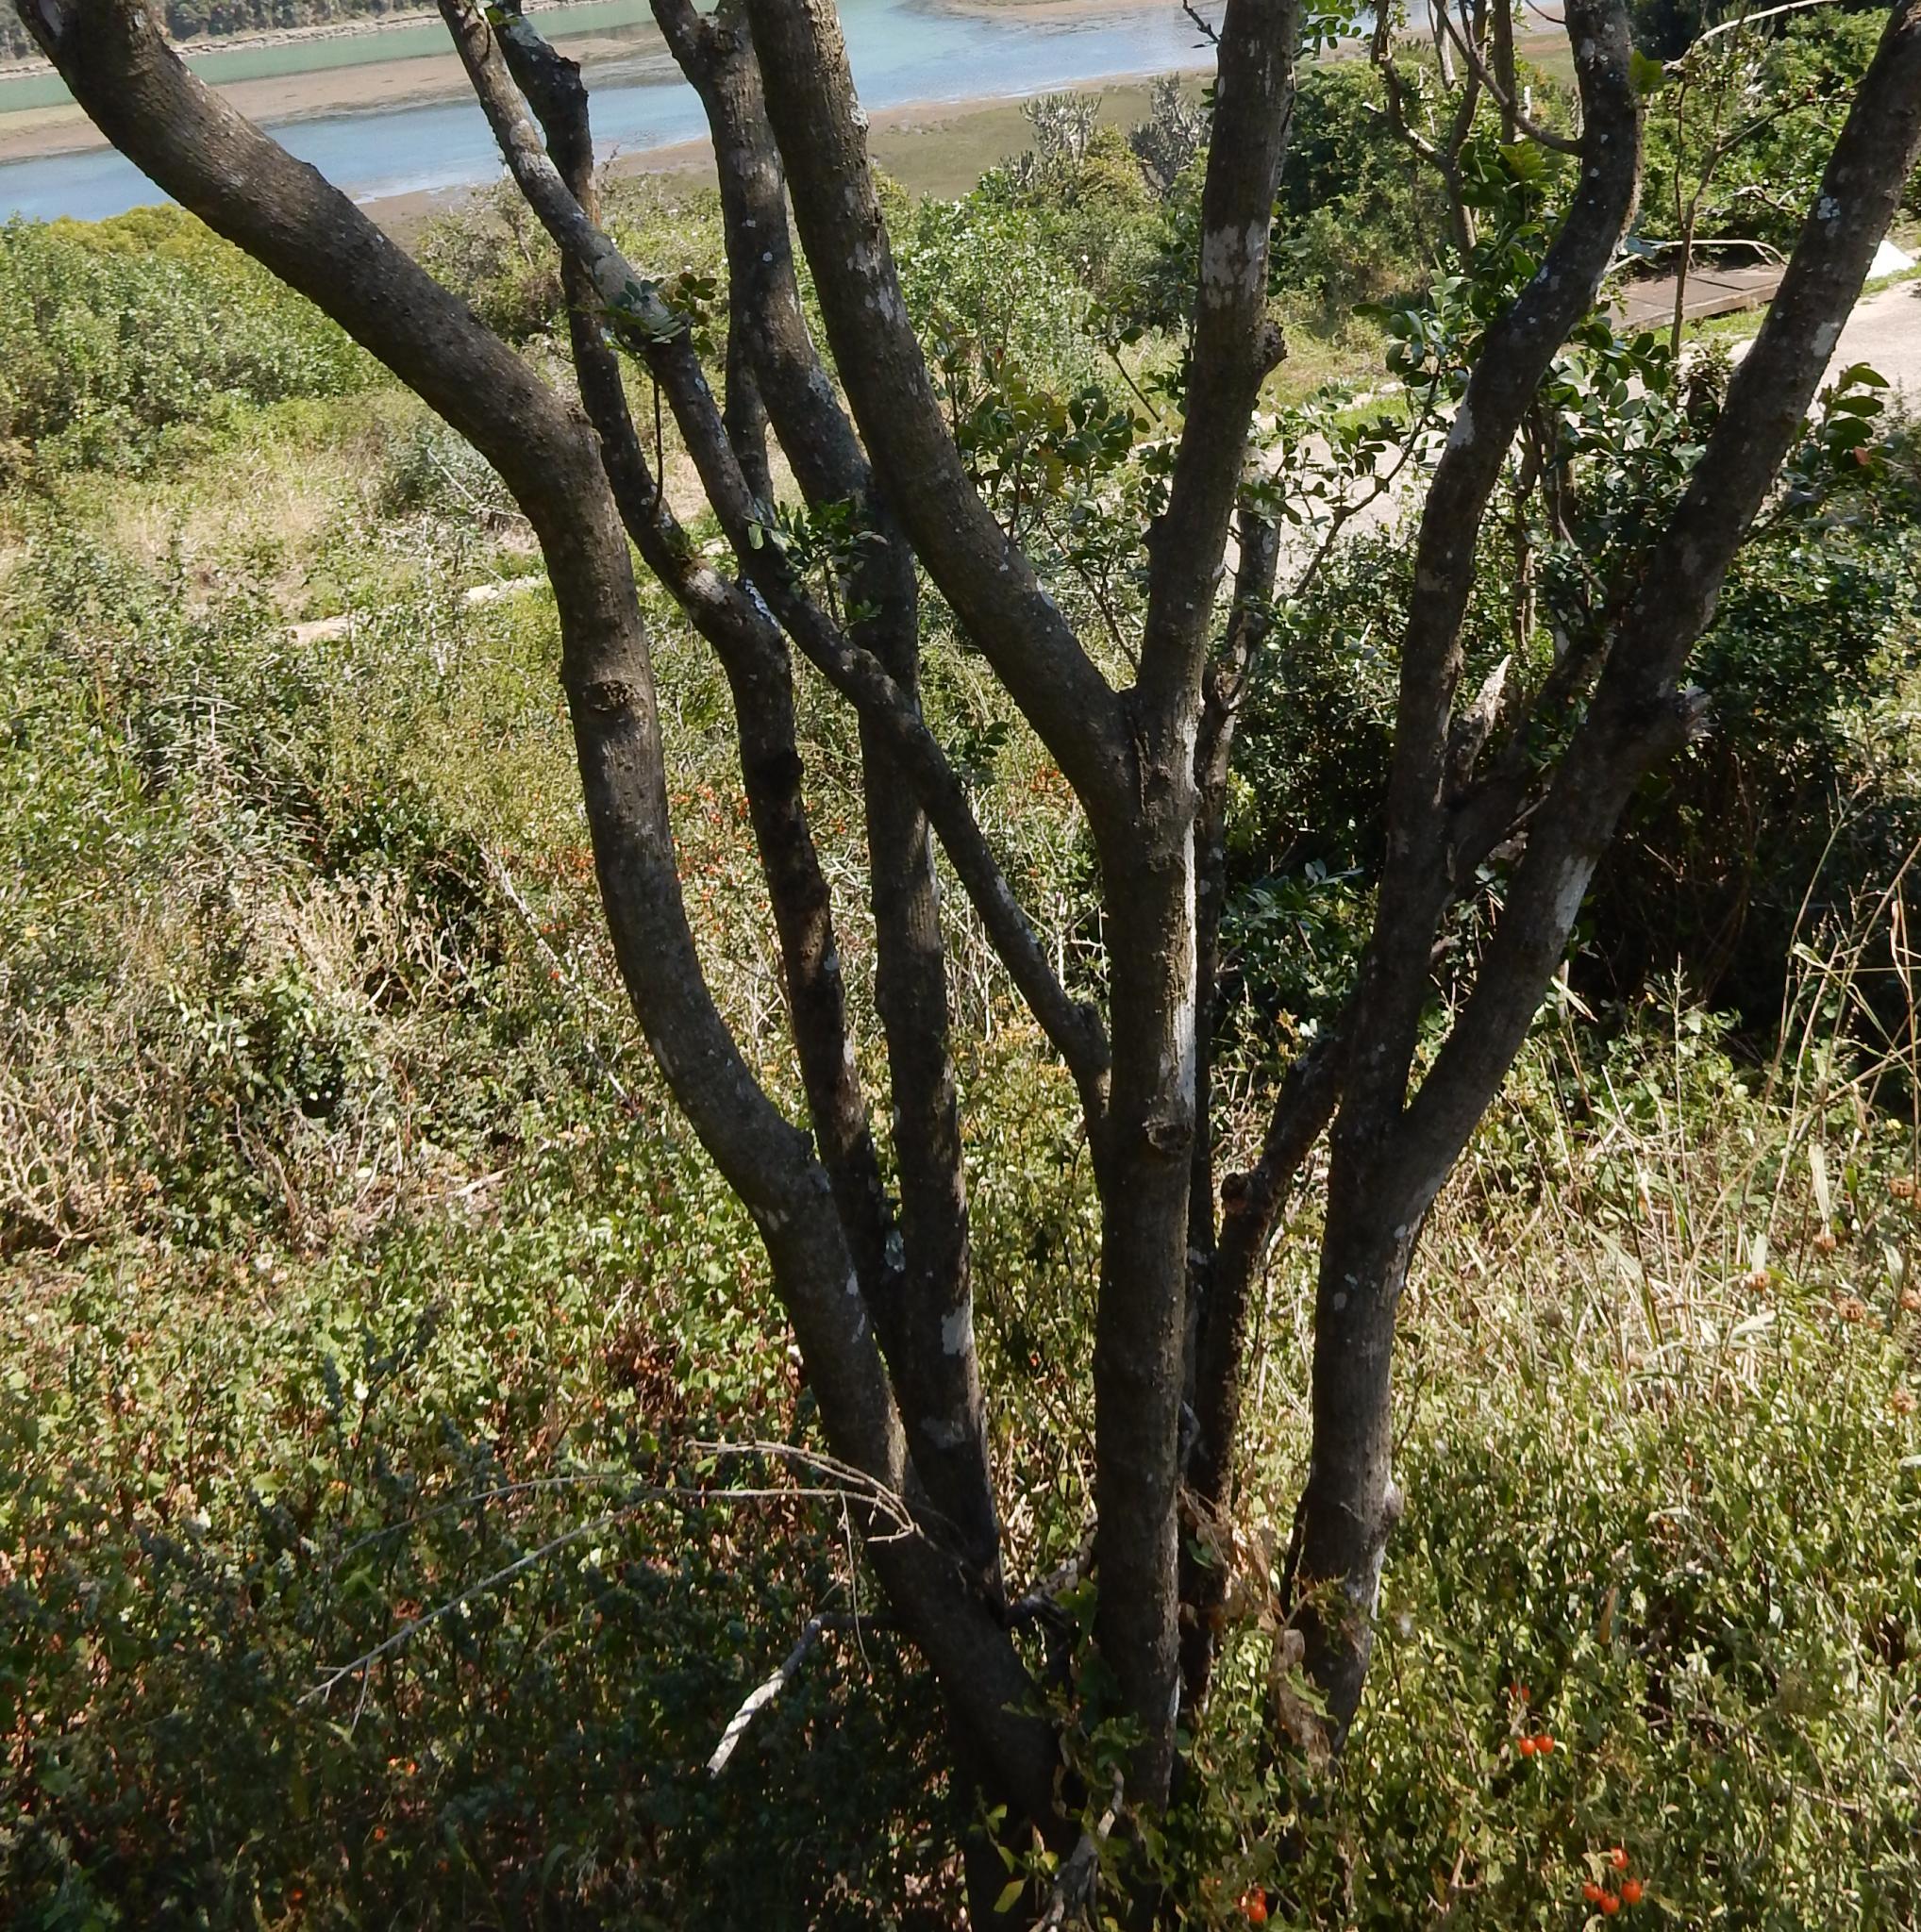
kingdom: Plantae
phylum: Tracheophyta
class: Magnoliopsida
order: Sapindales
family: Rutaceae
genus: Ptaeroxylon
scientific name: Ptaeroxylon obliquum
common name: Sneezewood
